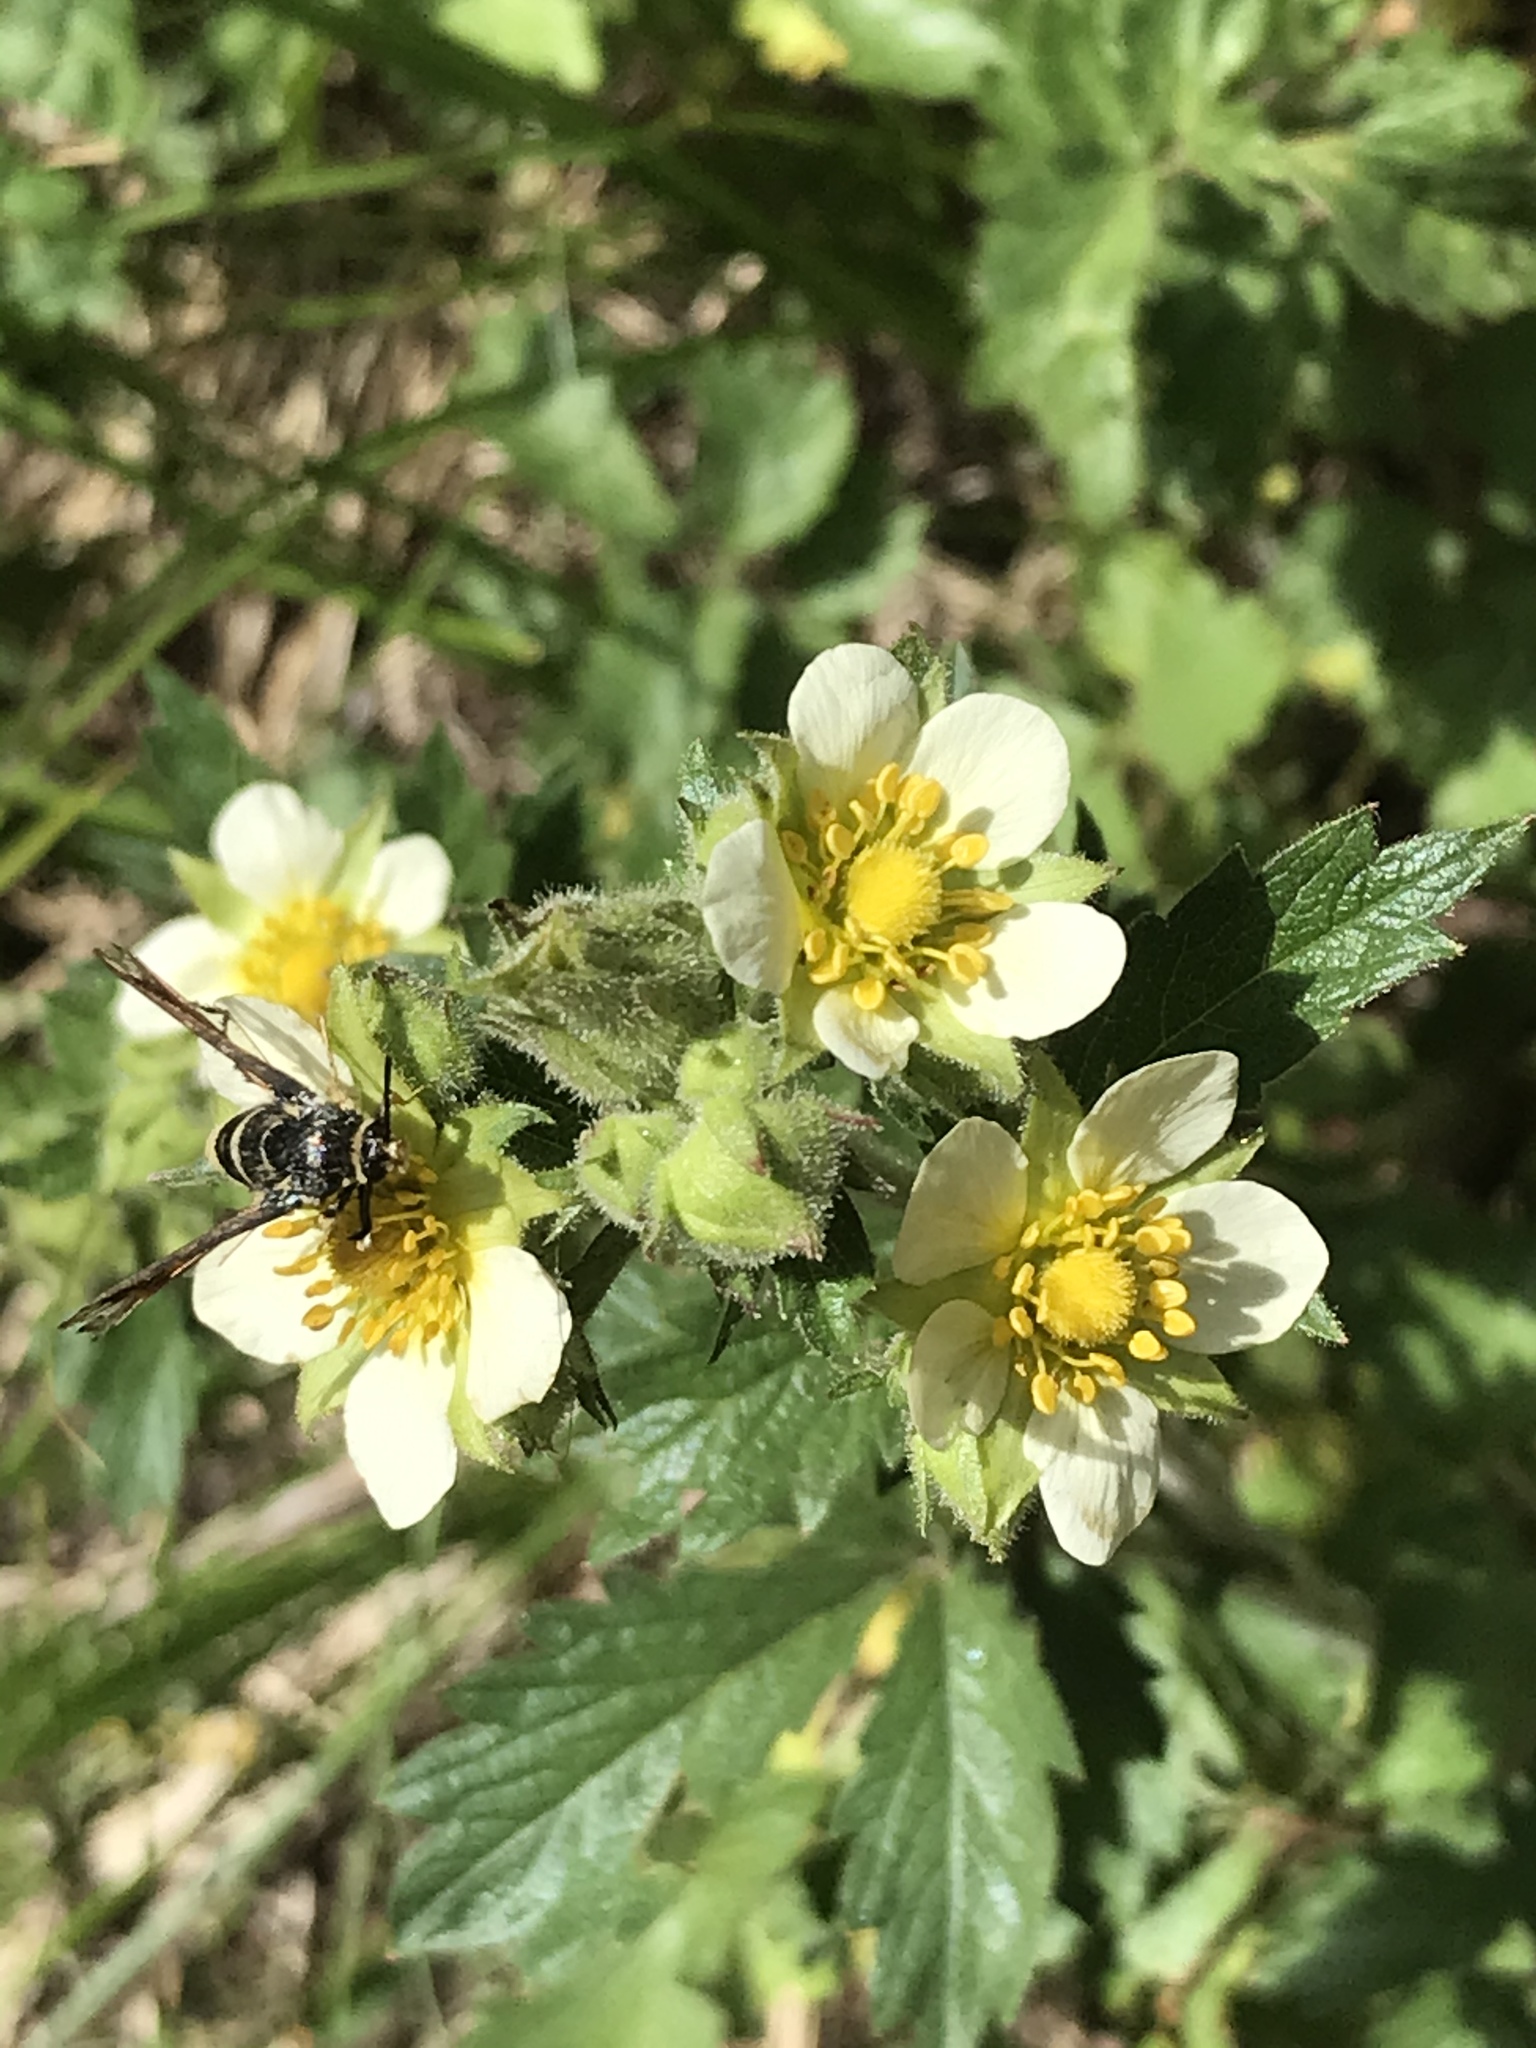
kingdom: Plantae
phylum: Tracheophyta
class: Magnoliopsida
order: Rosales
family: Rosaceae
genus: Drymocallis
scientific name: Drymocallis arguta
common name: Tall cinquefoil
